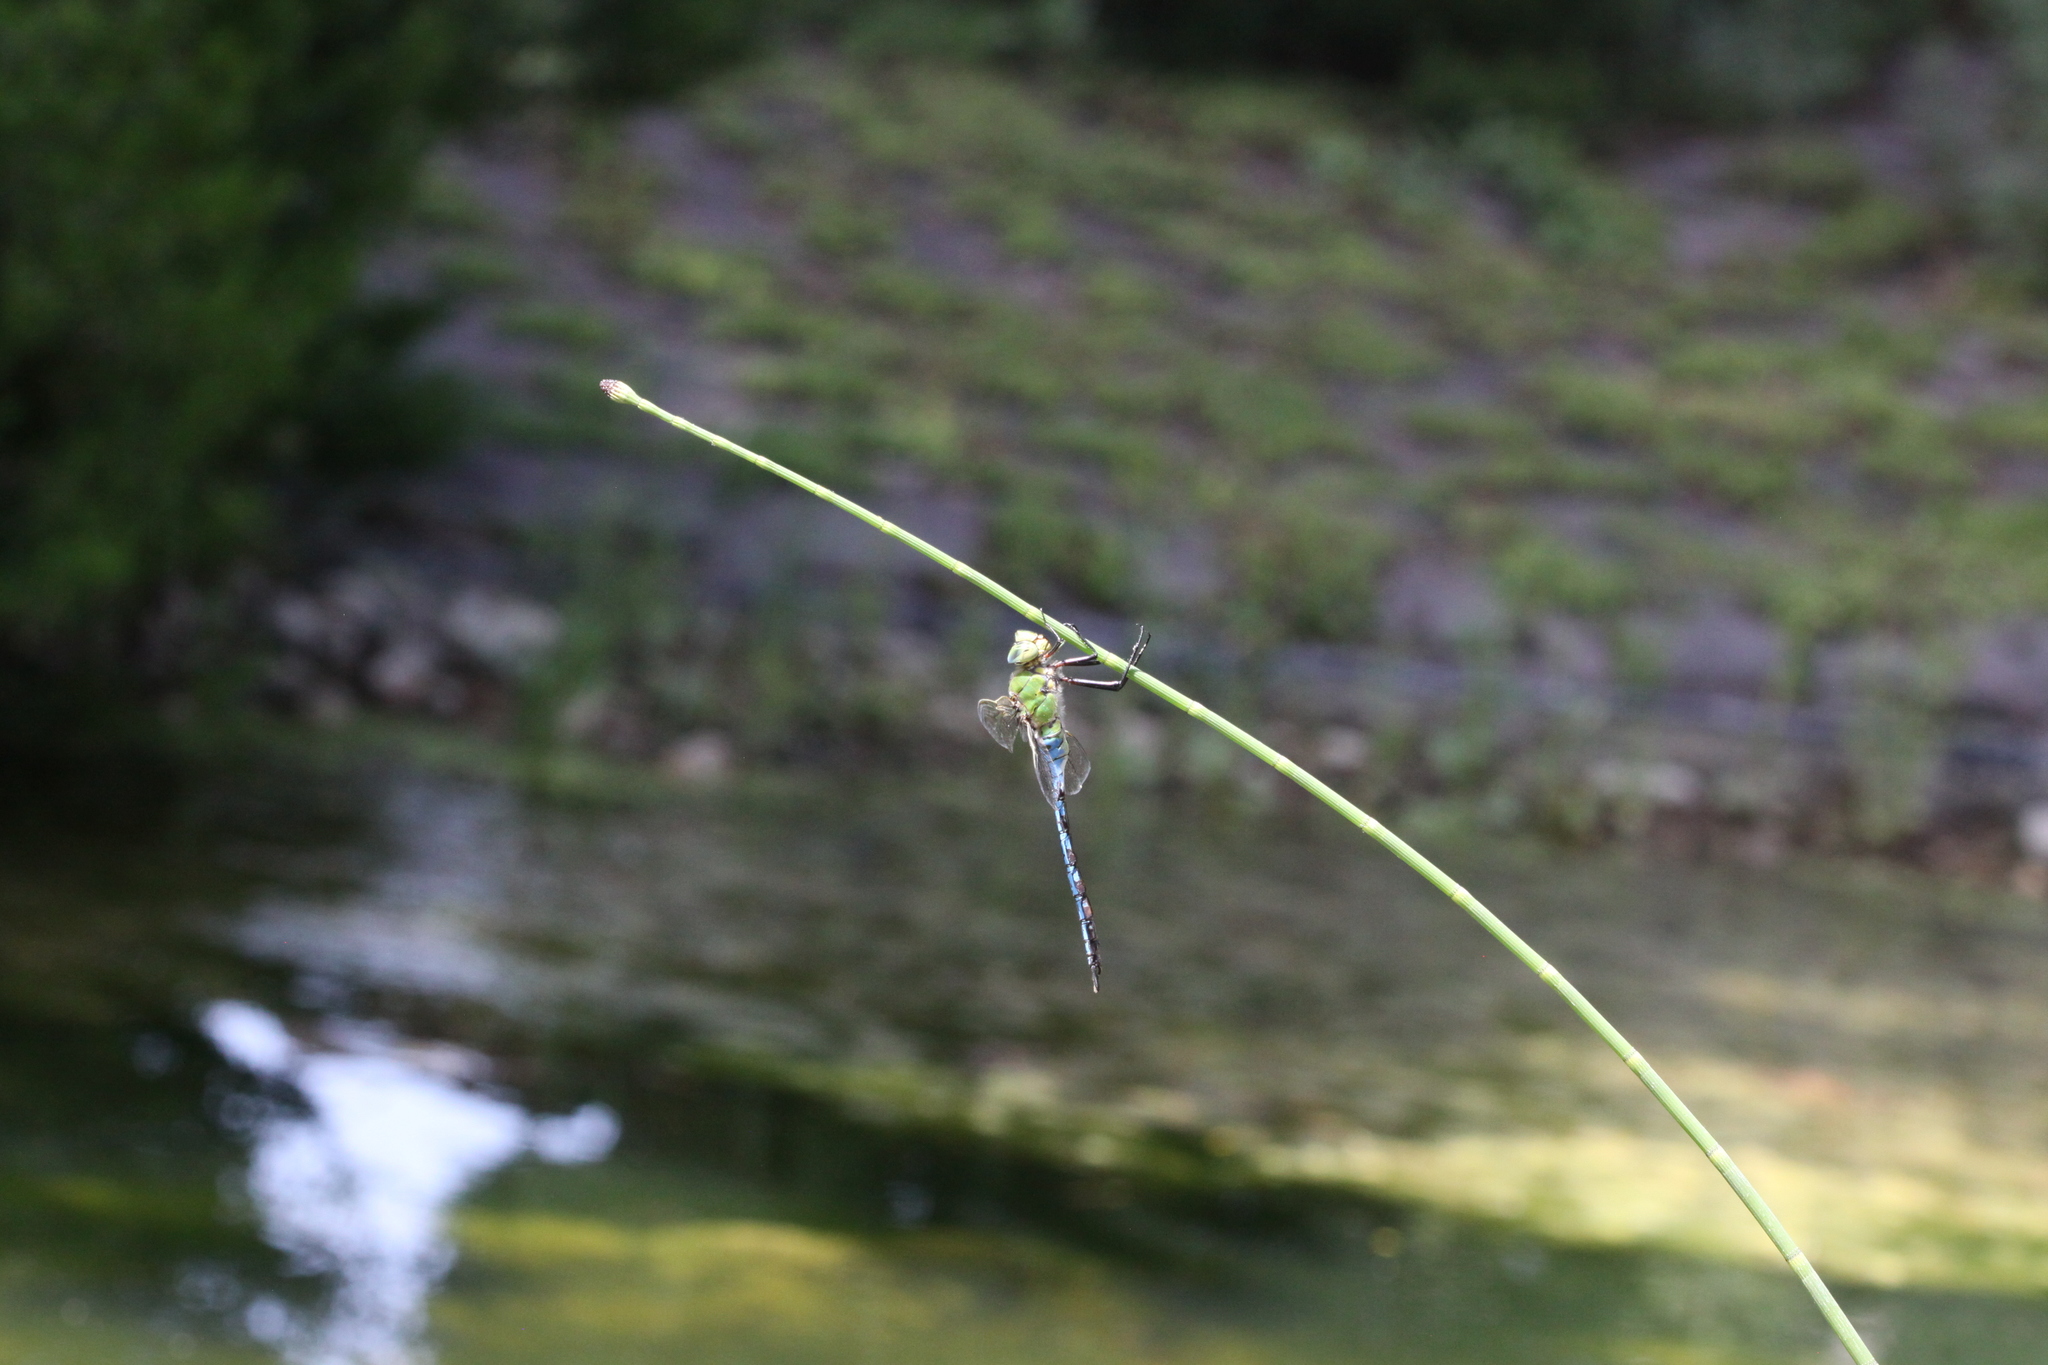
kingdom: Animalia
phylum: Arthropoda
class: Insecta
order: Odonata
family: Aeshnidae
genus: Anax
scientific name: Anax imperator
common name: Emperor dragonfly
